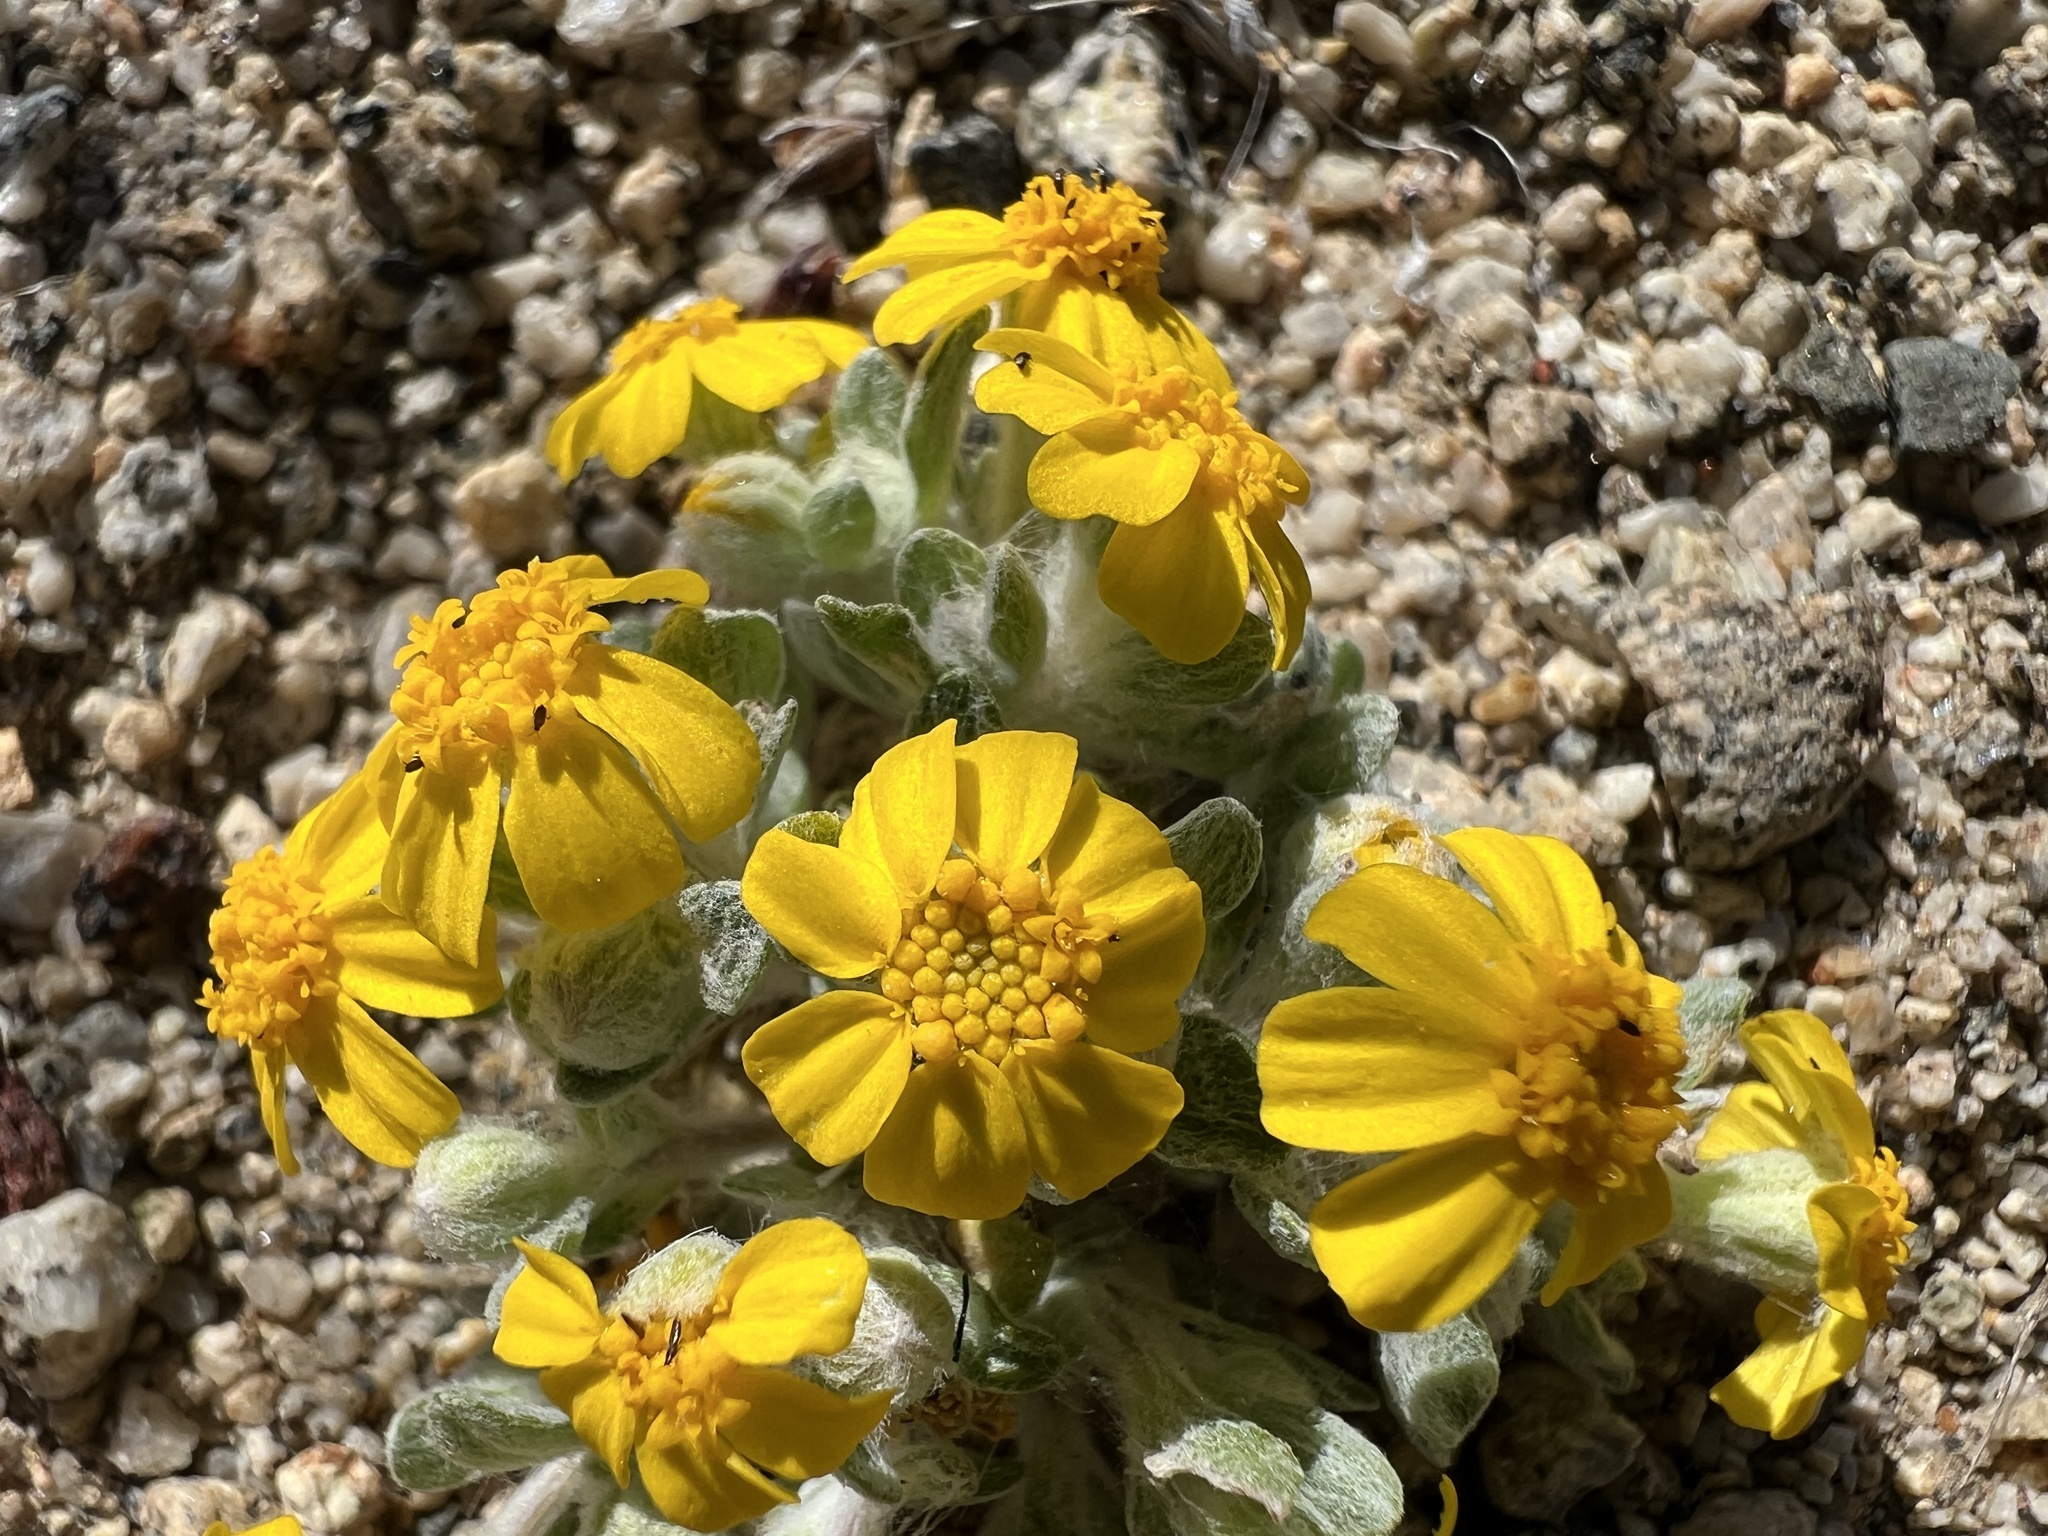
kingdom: Plantae
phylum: Tracheophyta
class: Magnoliopsida
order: Asterales
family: Asteraceae
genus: Eriophyllum
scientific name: Eriophyllum wallacei
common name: Wallace's woolly daisy
